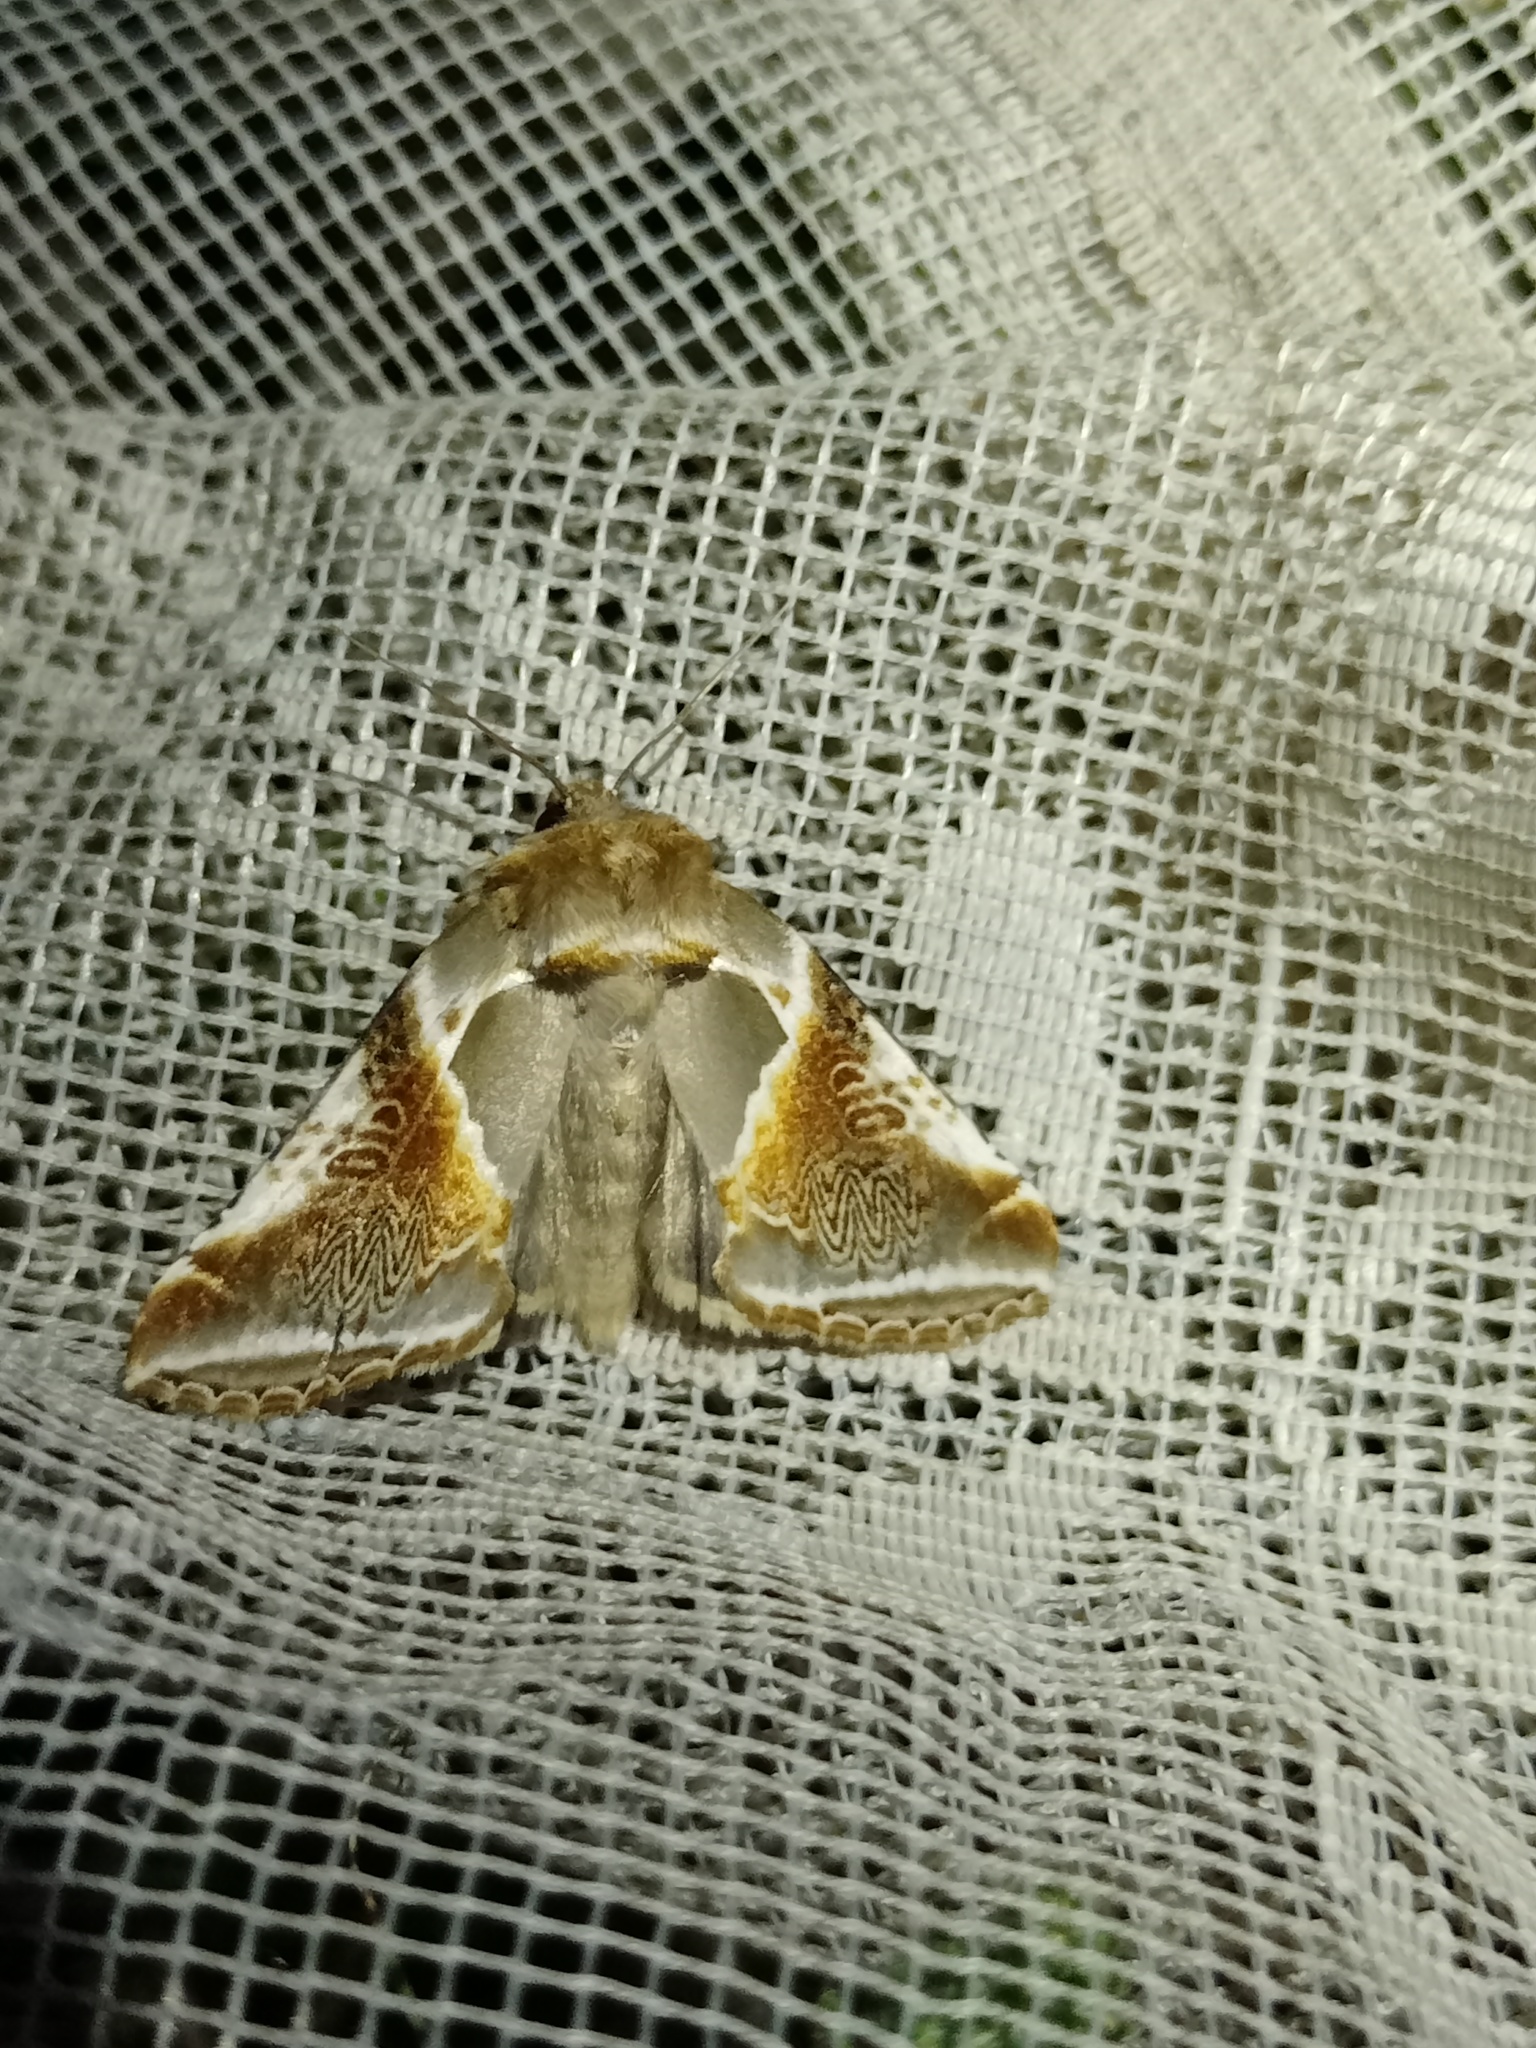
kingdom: Animalia
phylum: Arthropoda
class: Insecta
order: Lepidoptera
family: Drepanidae
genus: Habrosyne
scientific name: Habrosyne pyritoides
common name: Buff arches
